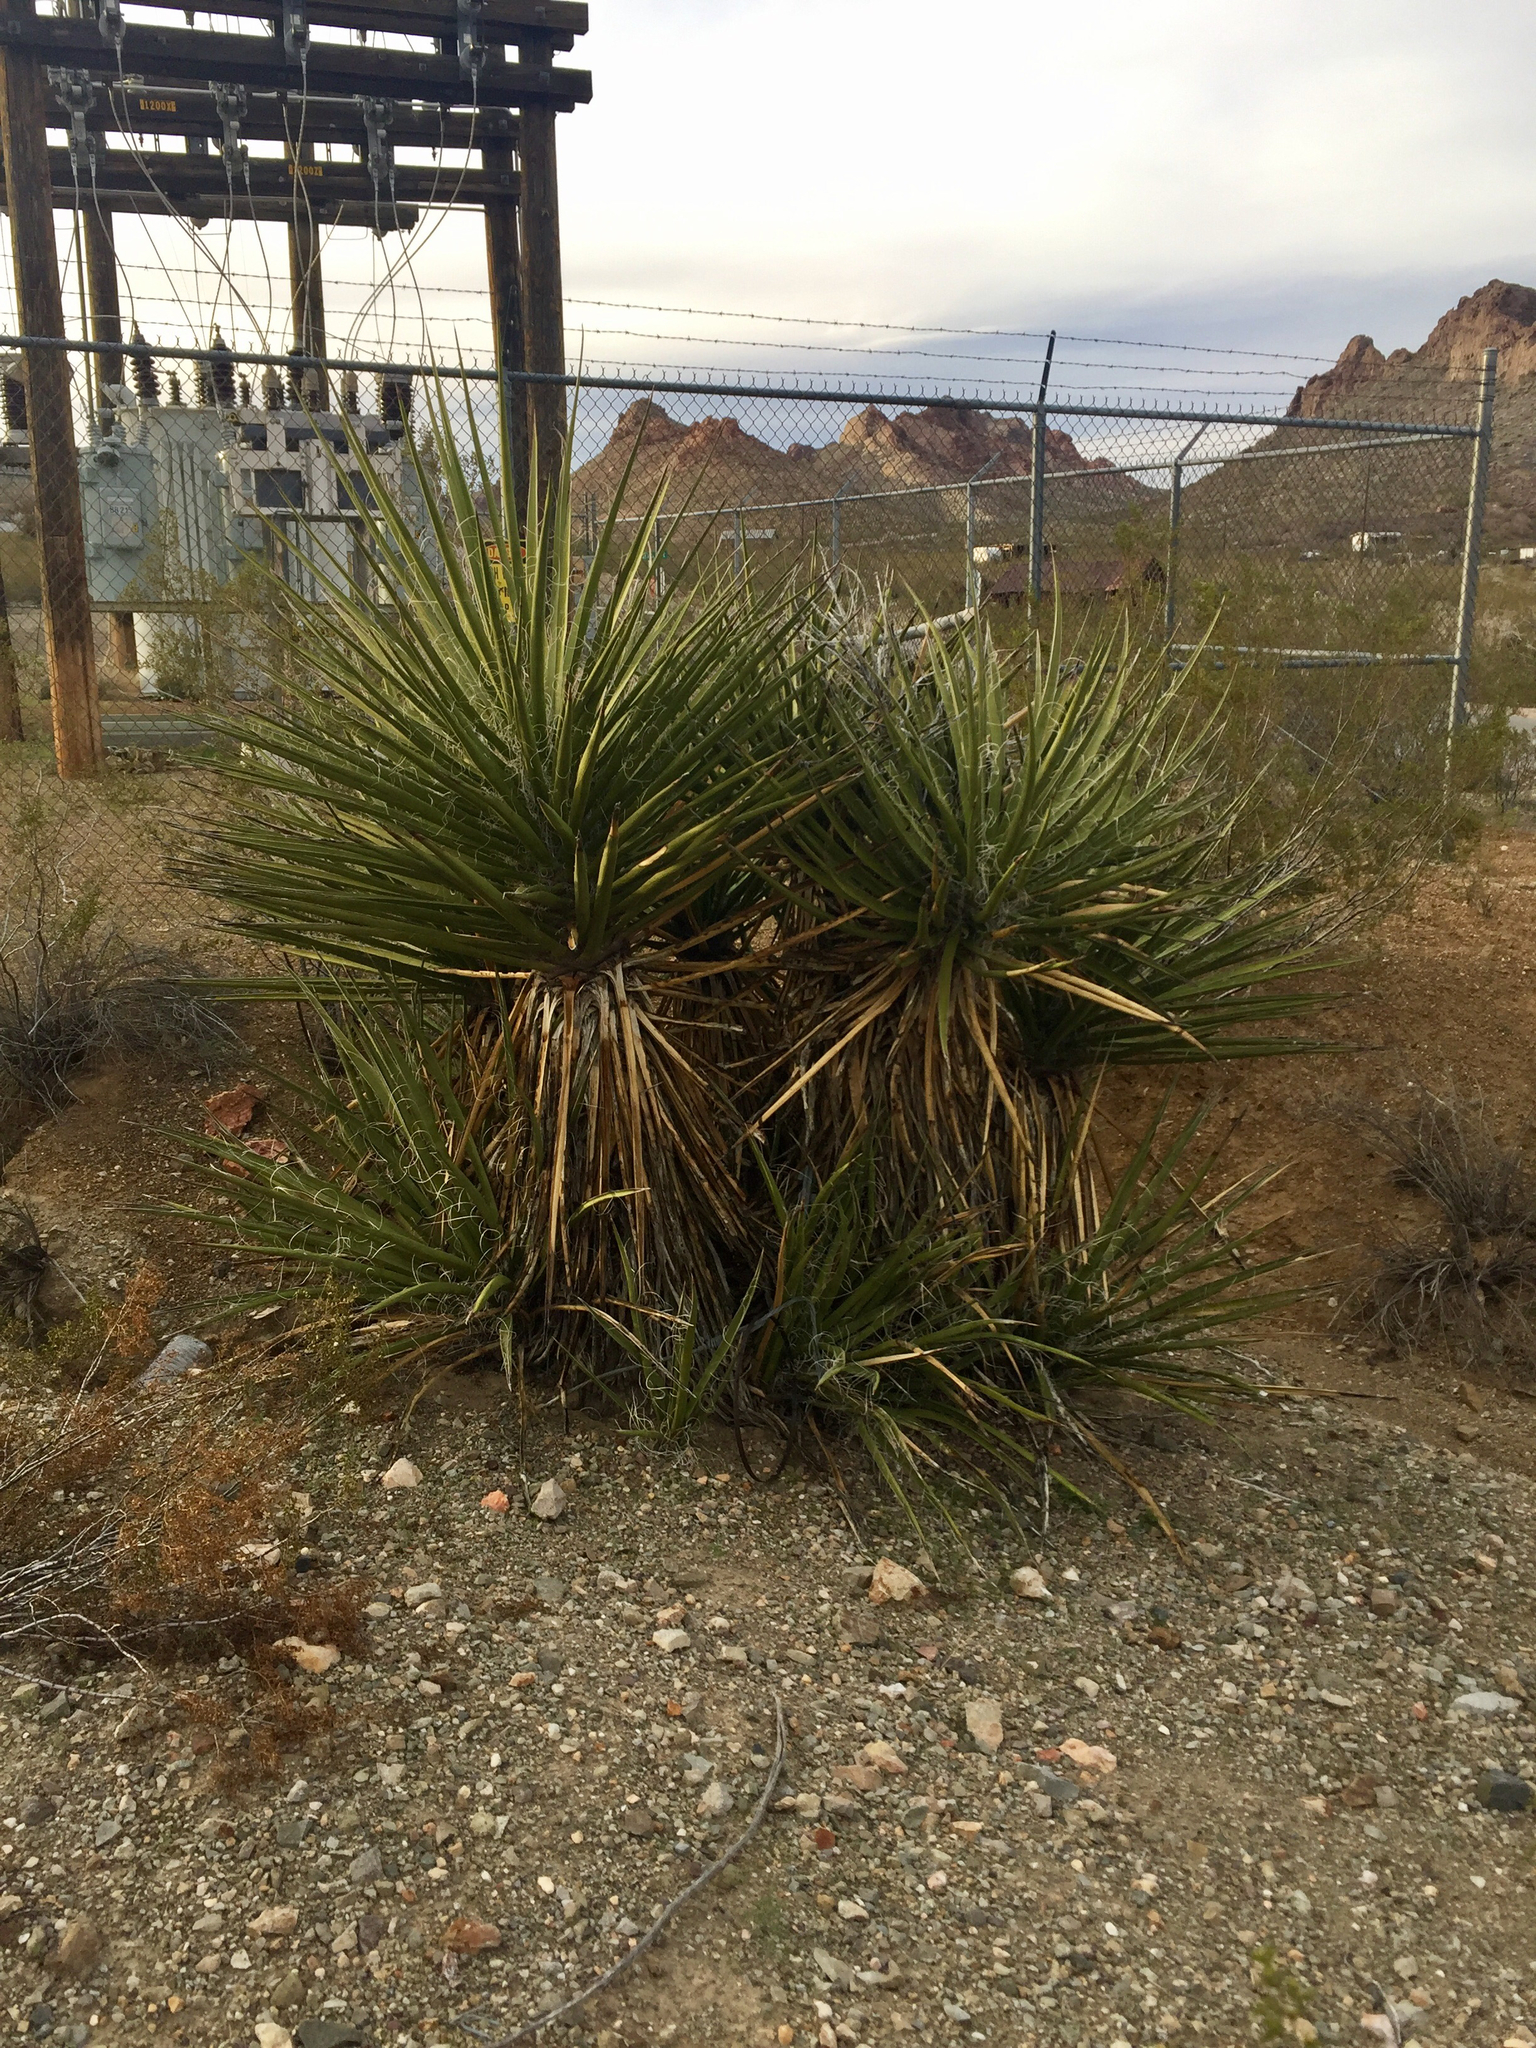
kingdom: Plantae
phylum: Tracheophyta
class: Liliopsida
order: Asparagales
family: Asparagaceae
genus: Yucca
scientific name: Yucca schidigera
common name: Mojave yucca
